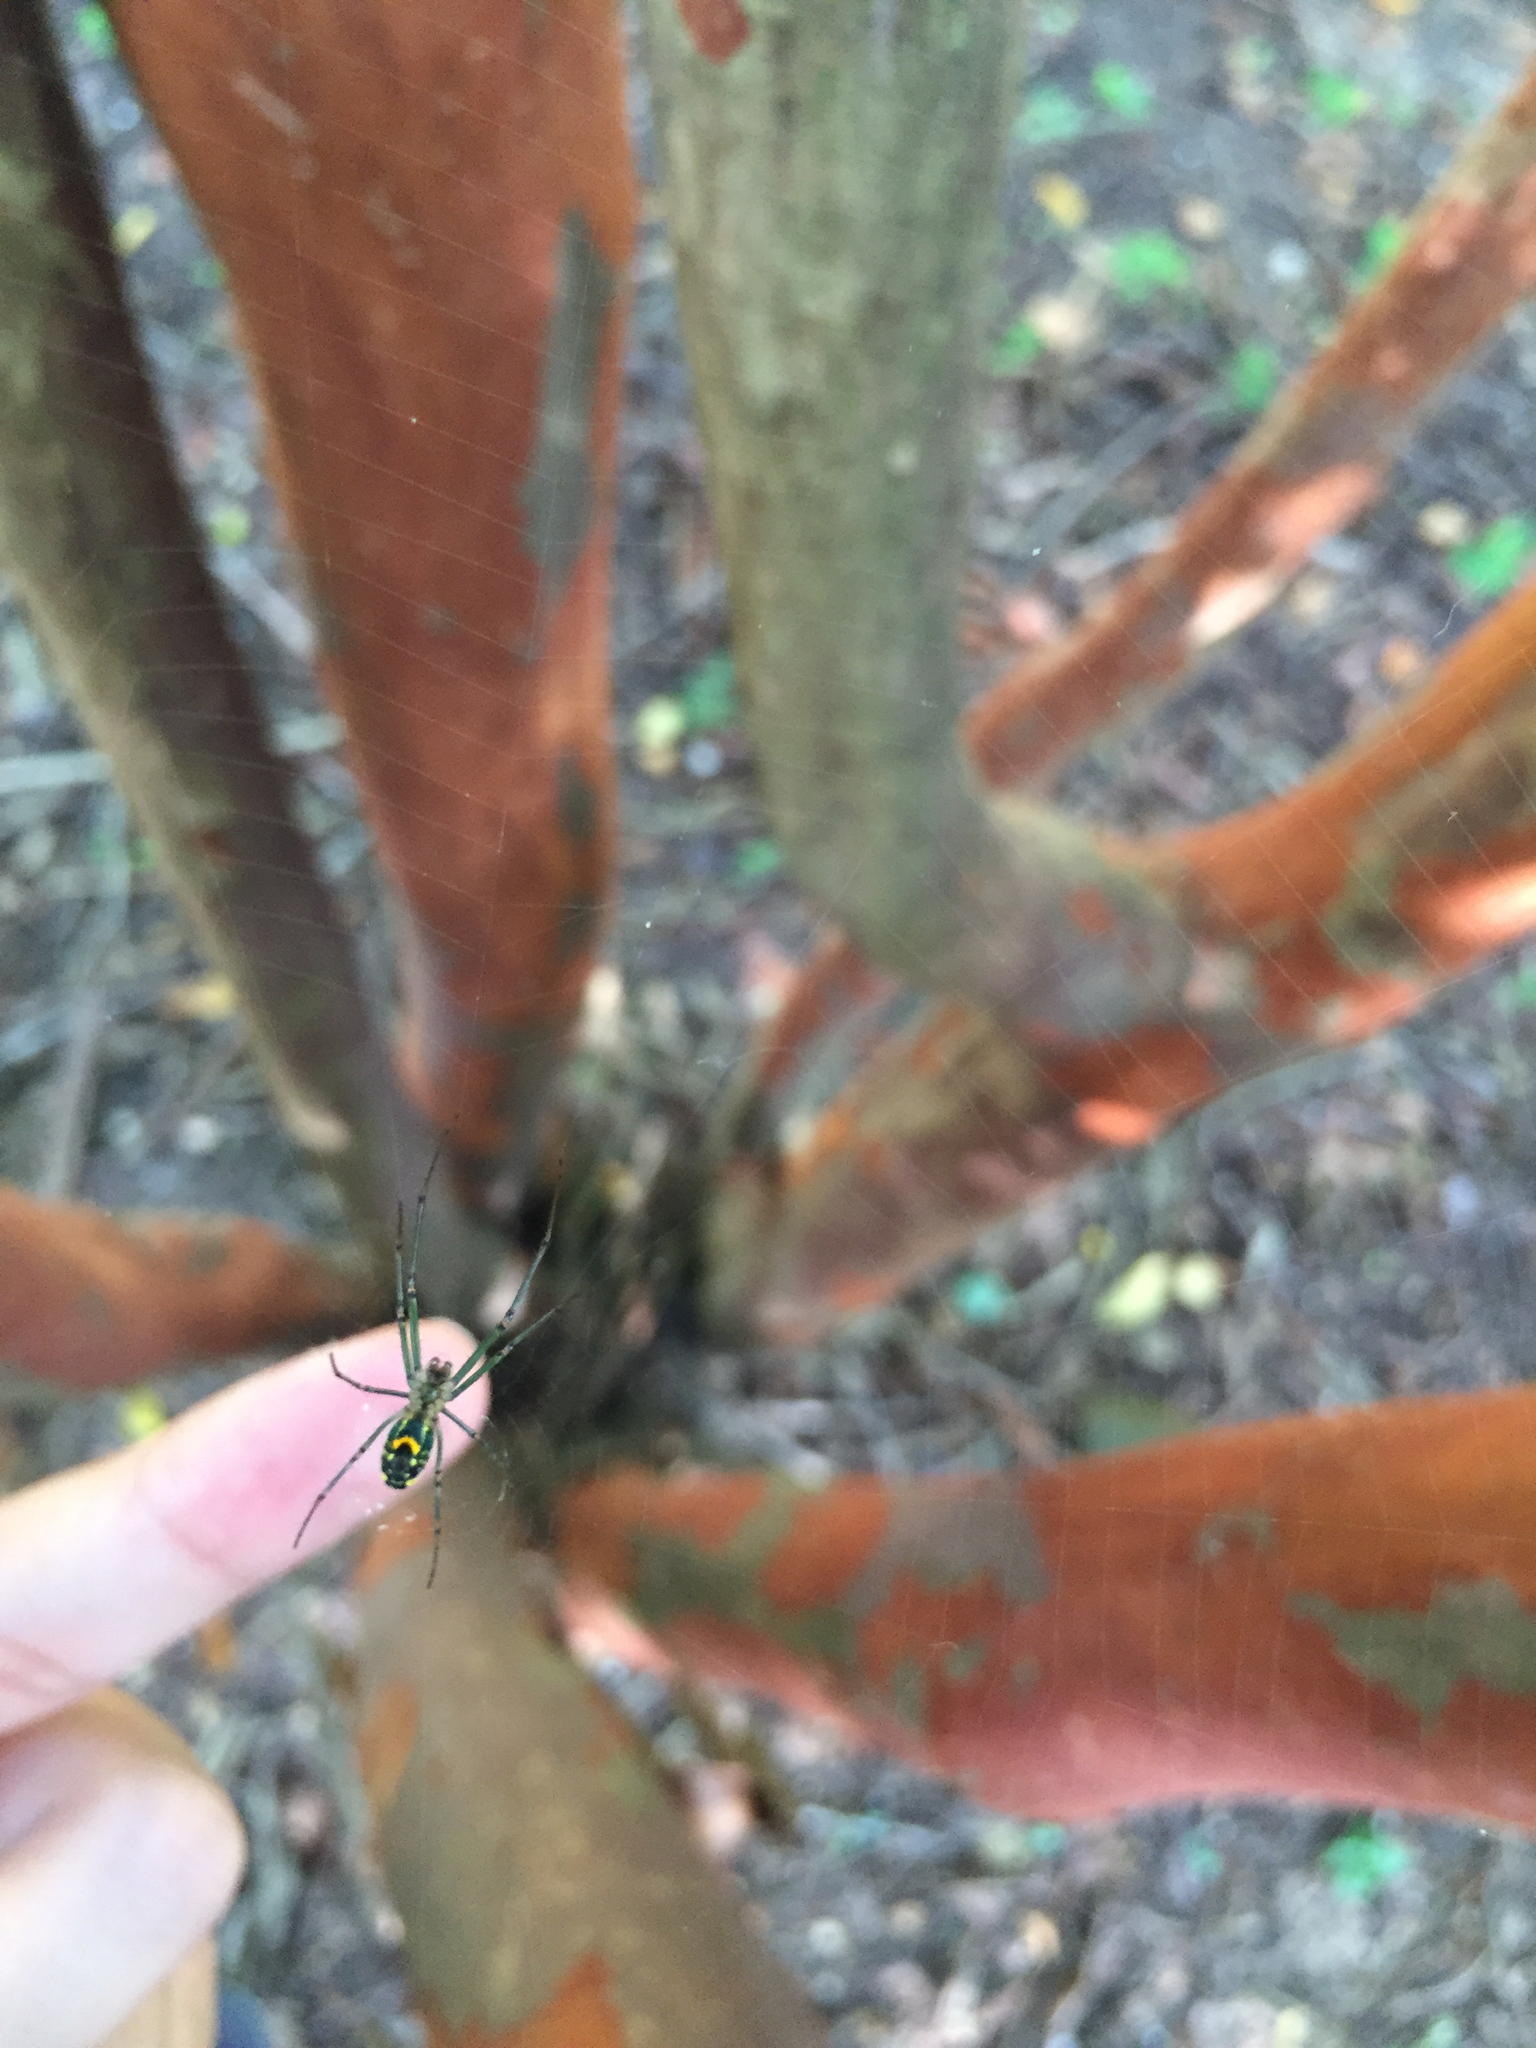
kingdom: Animalia
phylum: Arthropoda
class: Arachnida
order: Araneae
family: Tetragnathidae
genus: Leucauge
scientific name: Leucauge venusta
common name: Longjawed orb weavers
